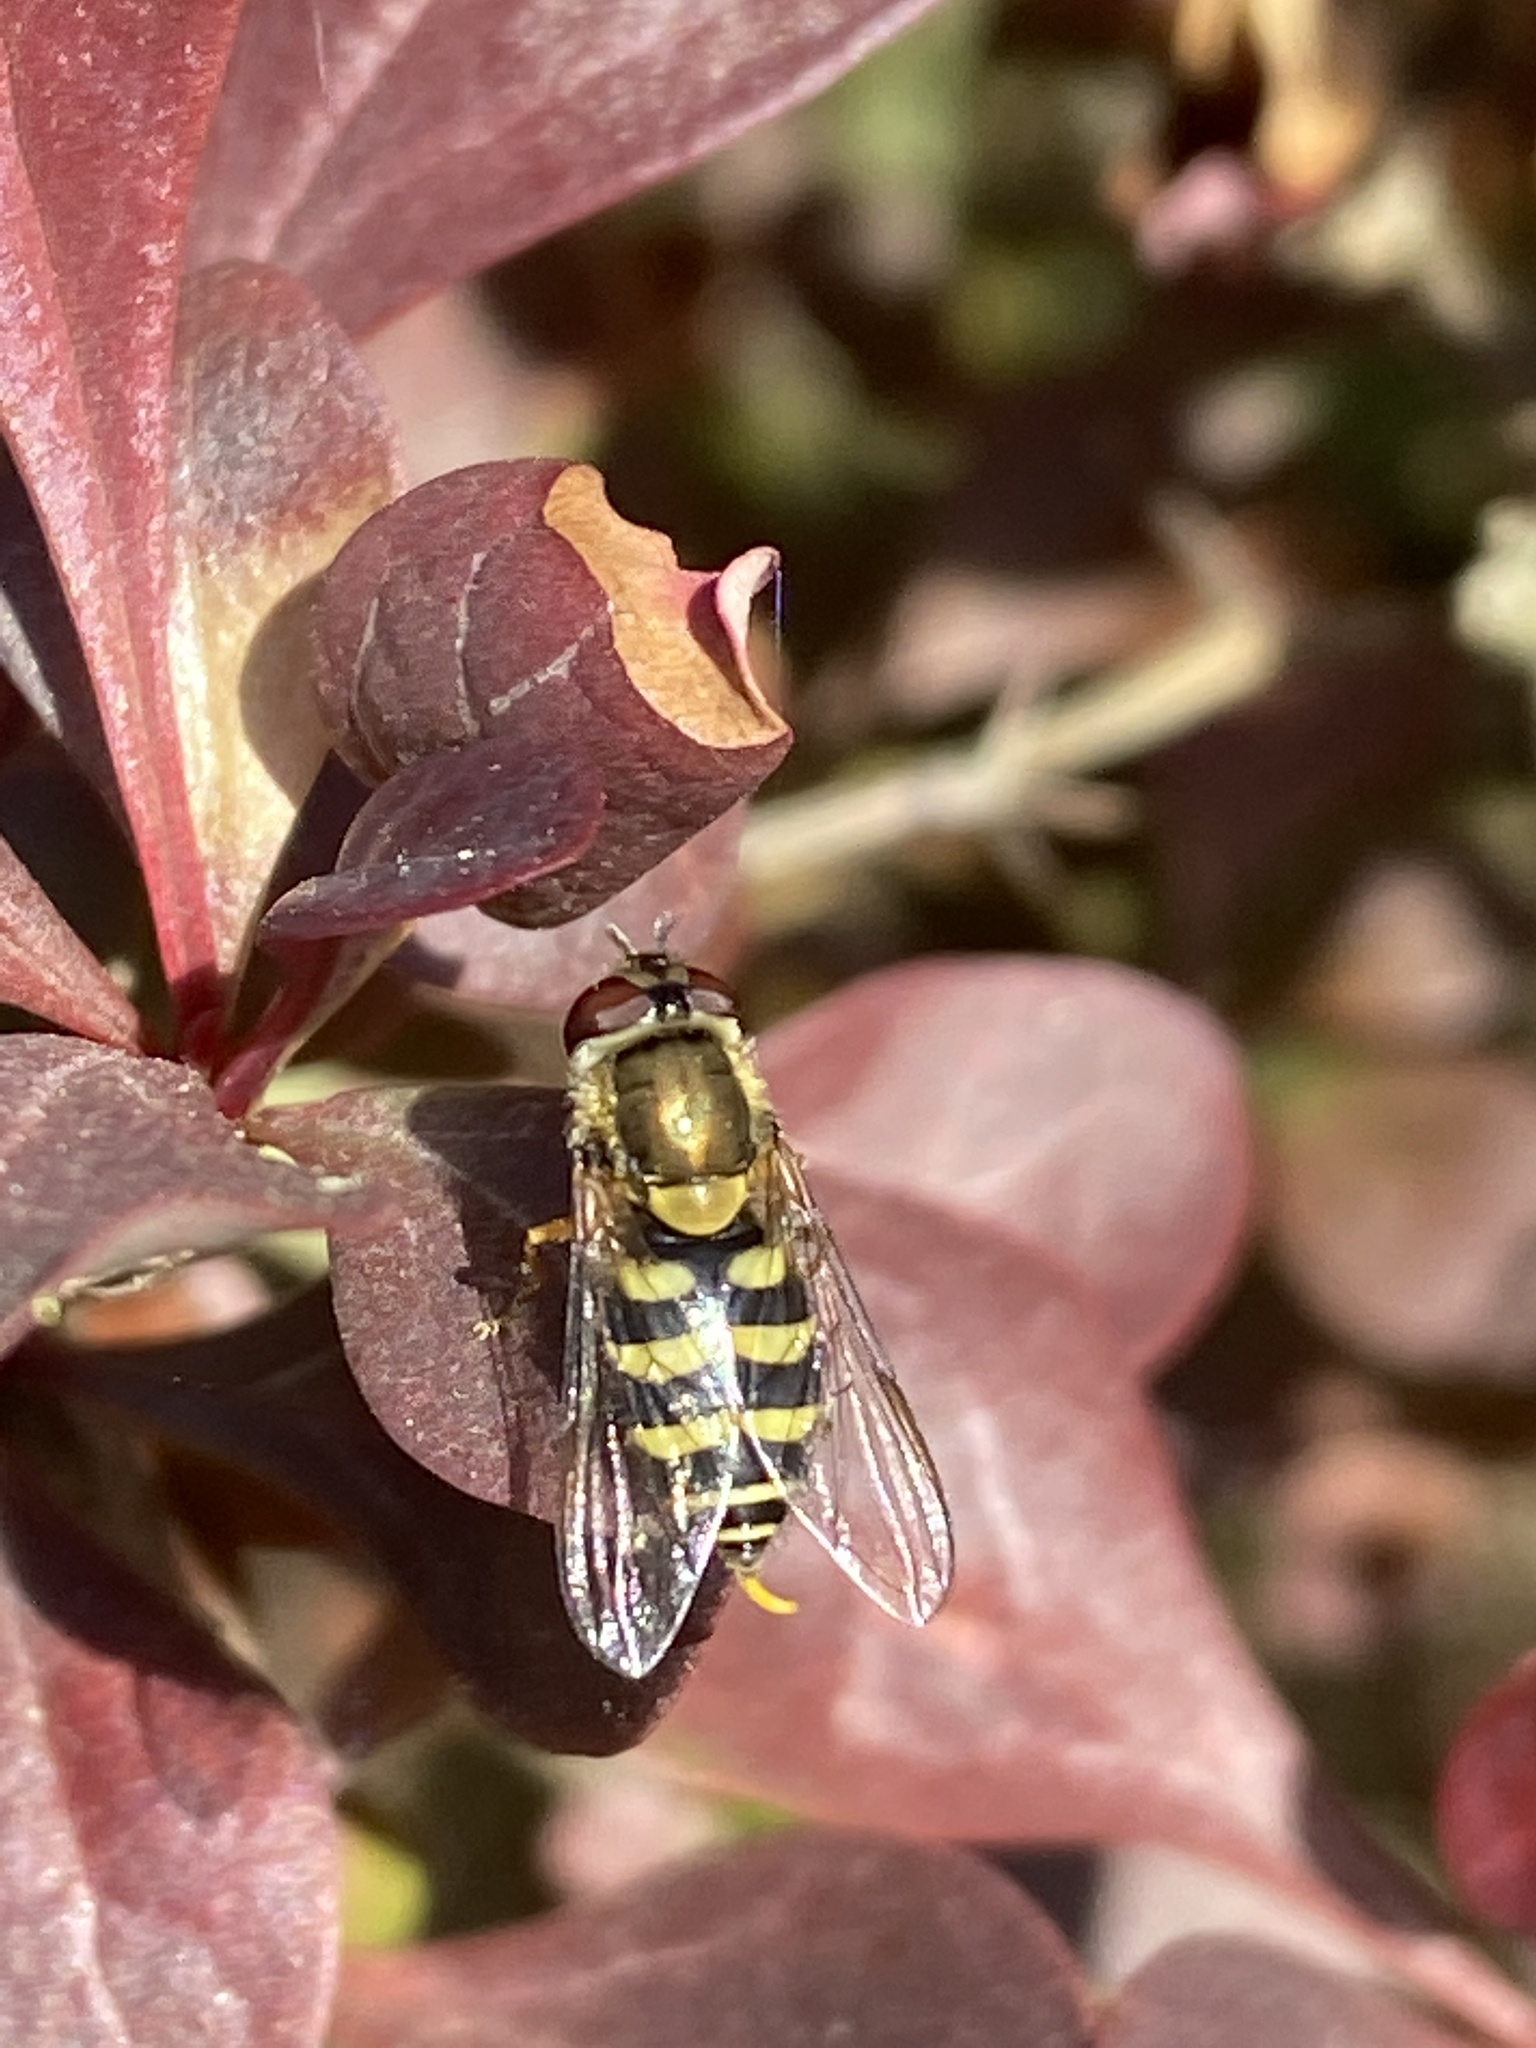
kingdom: Animalia
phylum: Arthropoda
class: Insecta
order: Diptera
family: Syrphidae
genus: Syrphus
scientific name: Syrphus torvus
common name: Hairy-eyed flower fly
